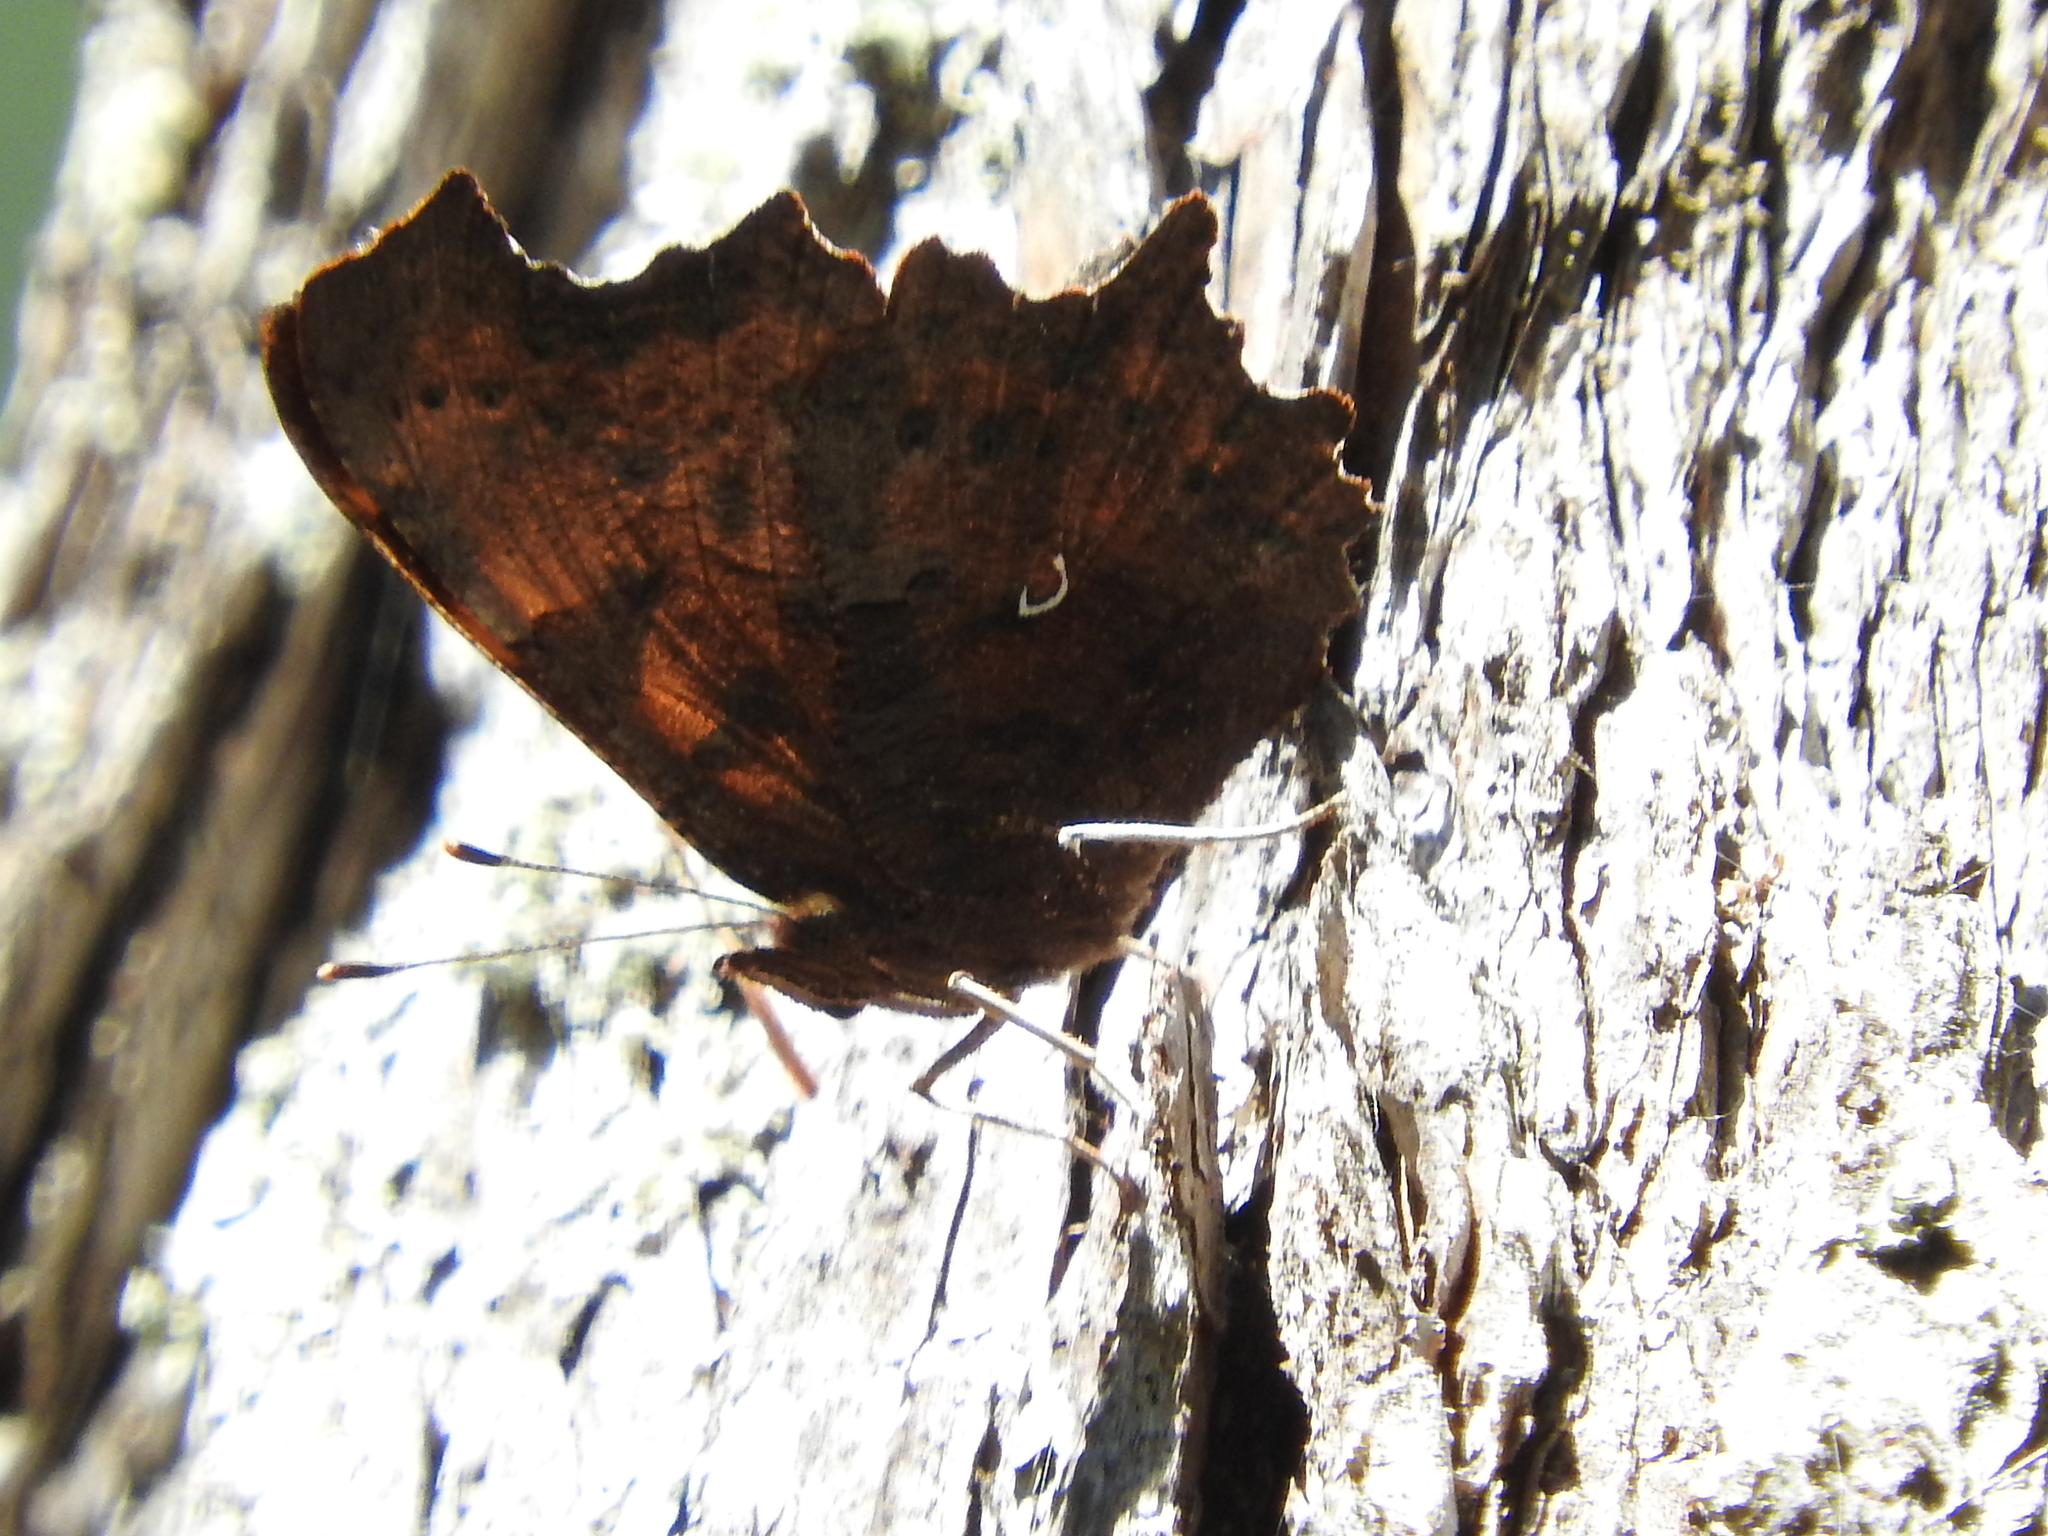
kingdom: Animalia
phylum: Arthropoda
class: Insecta
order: Lepidoptera
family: Nymphalidae
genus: Polygonia
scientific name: Polygonia c-album
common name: Comma
